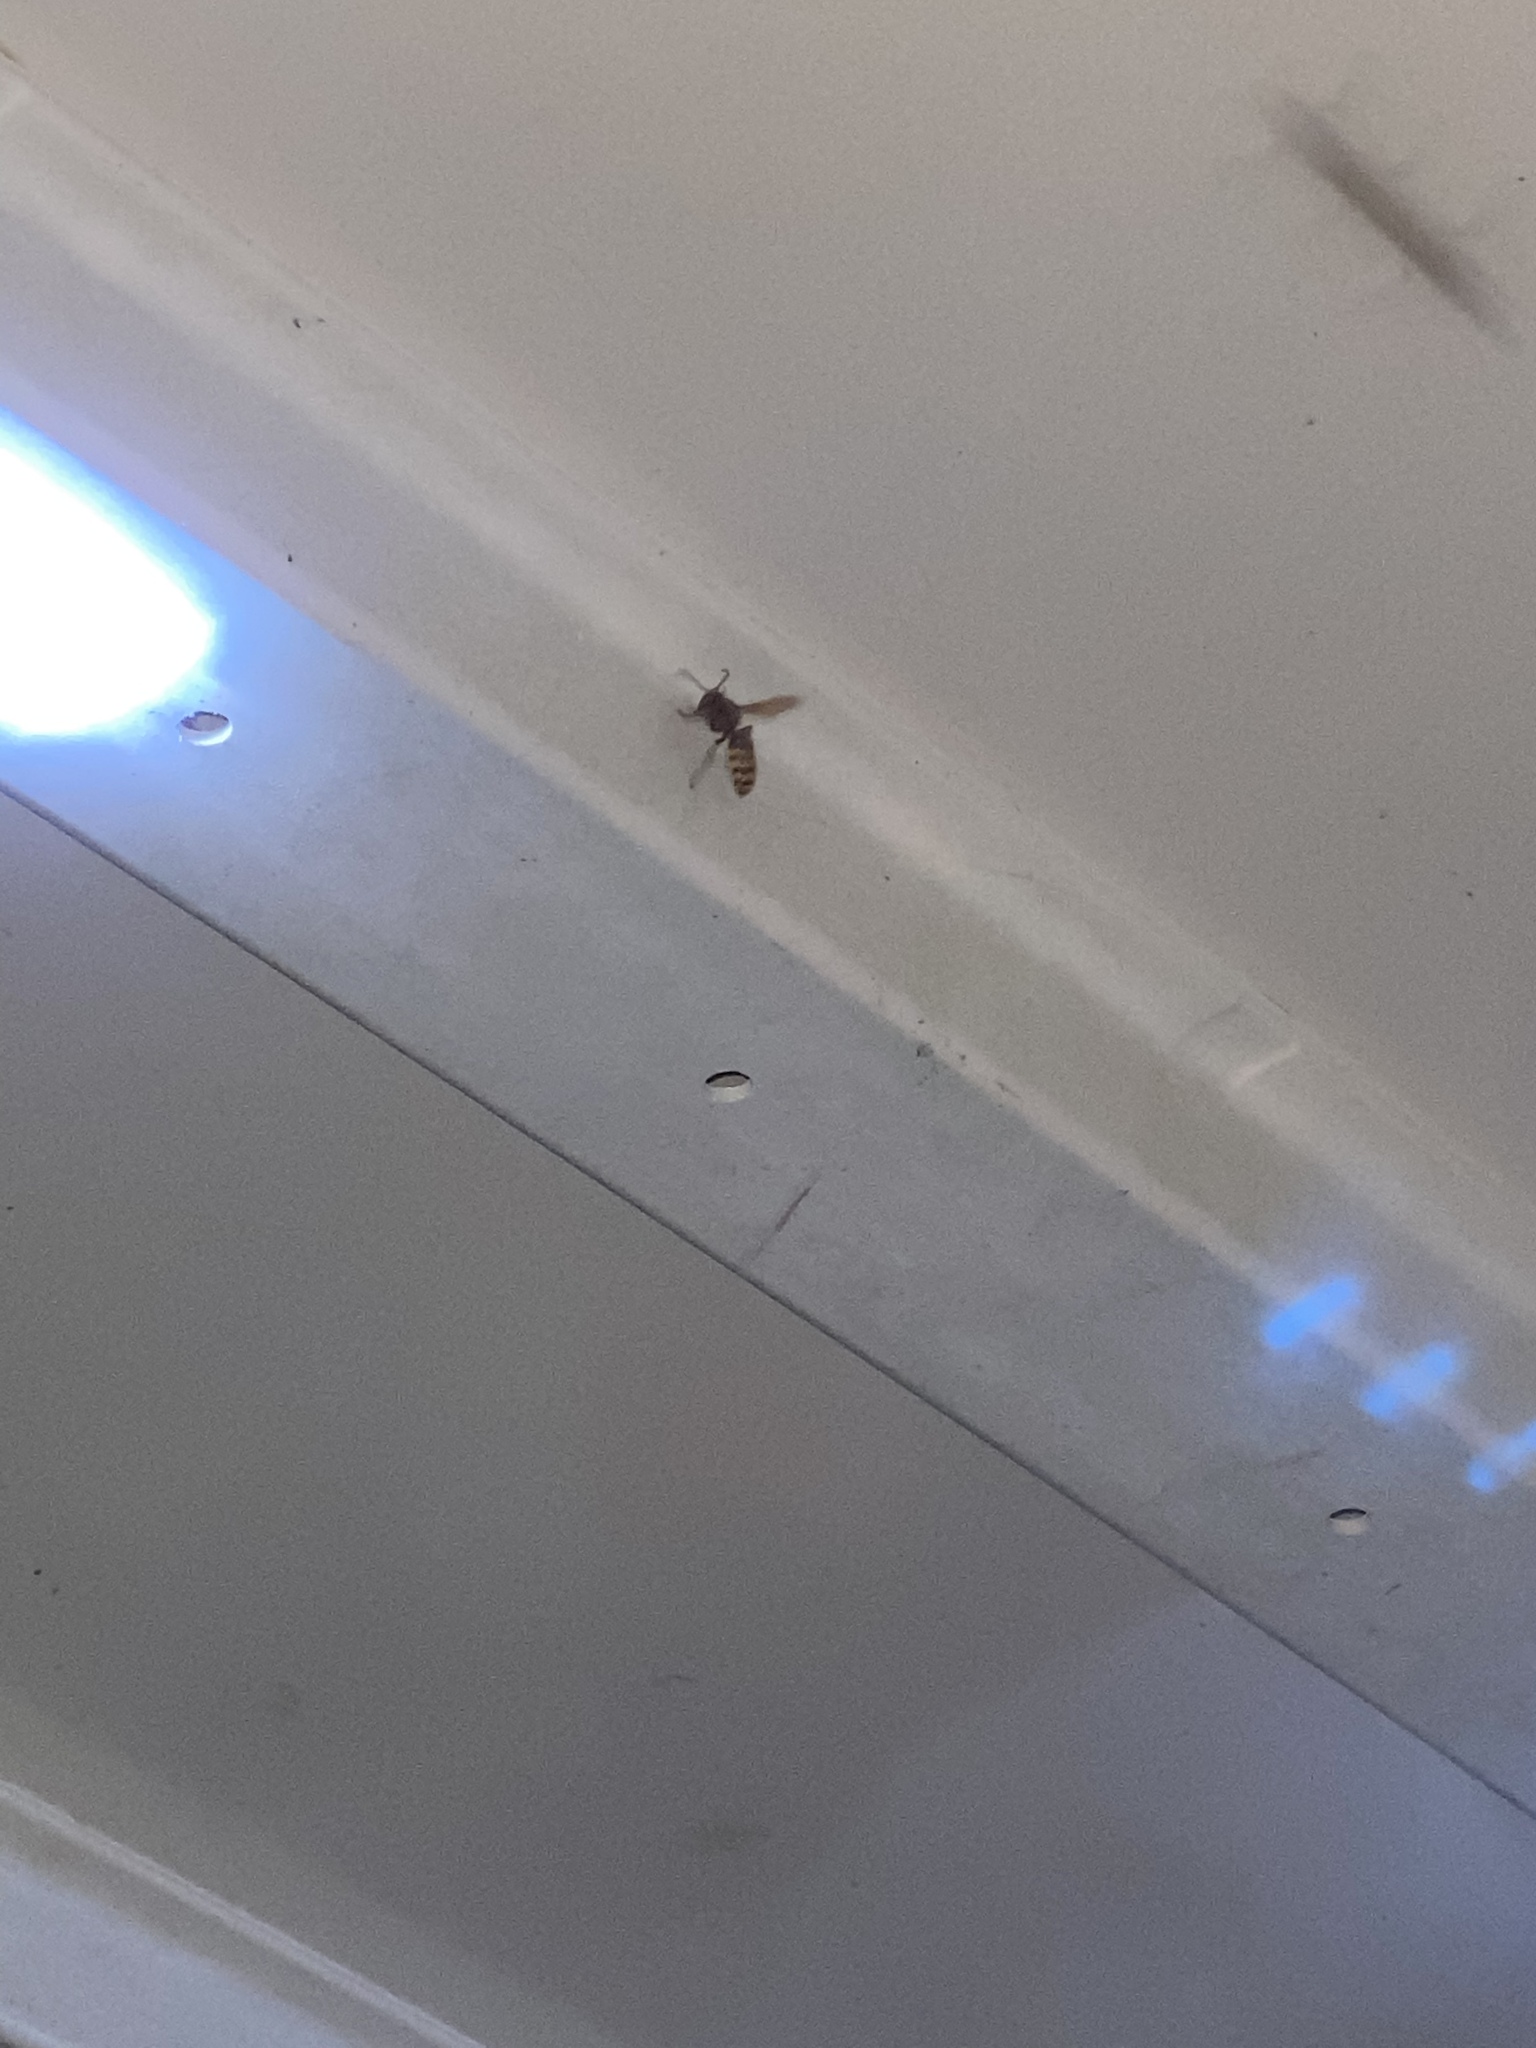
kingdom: Animalia
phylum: Arthropoda
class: Insecta
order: Hymenoptera
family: Vespidae
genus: Vespa
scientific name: Vespa crabro
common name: Hornet
